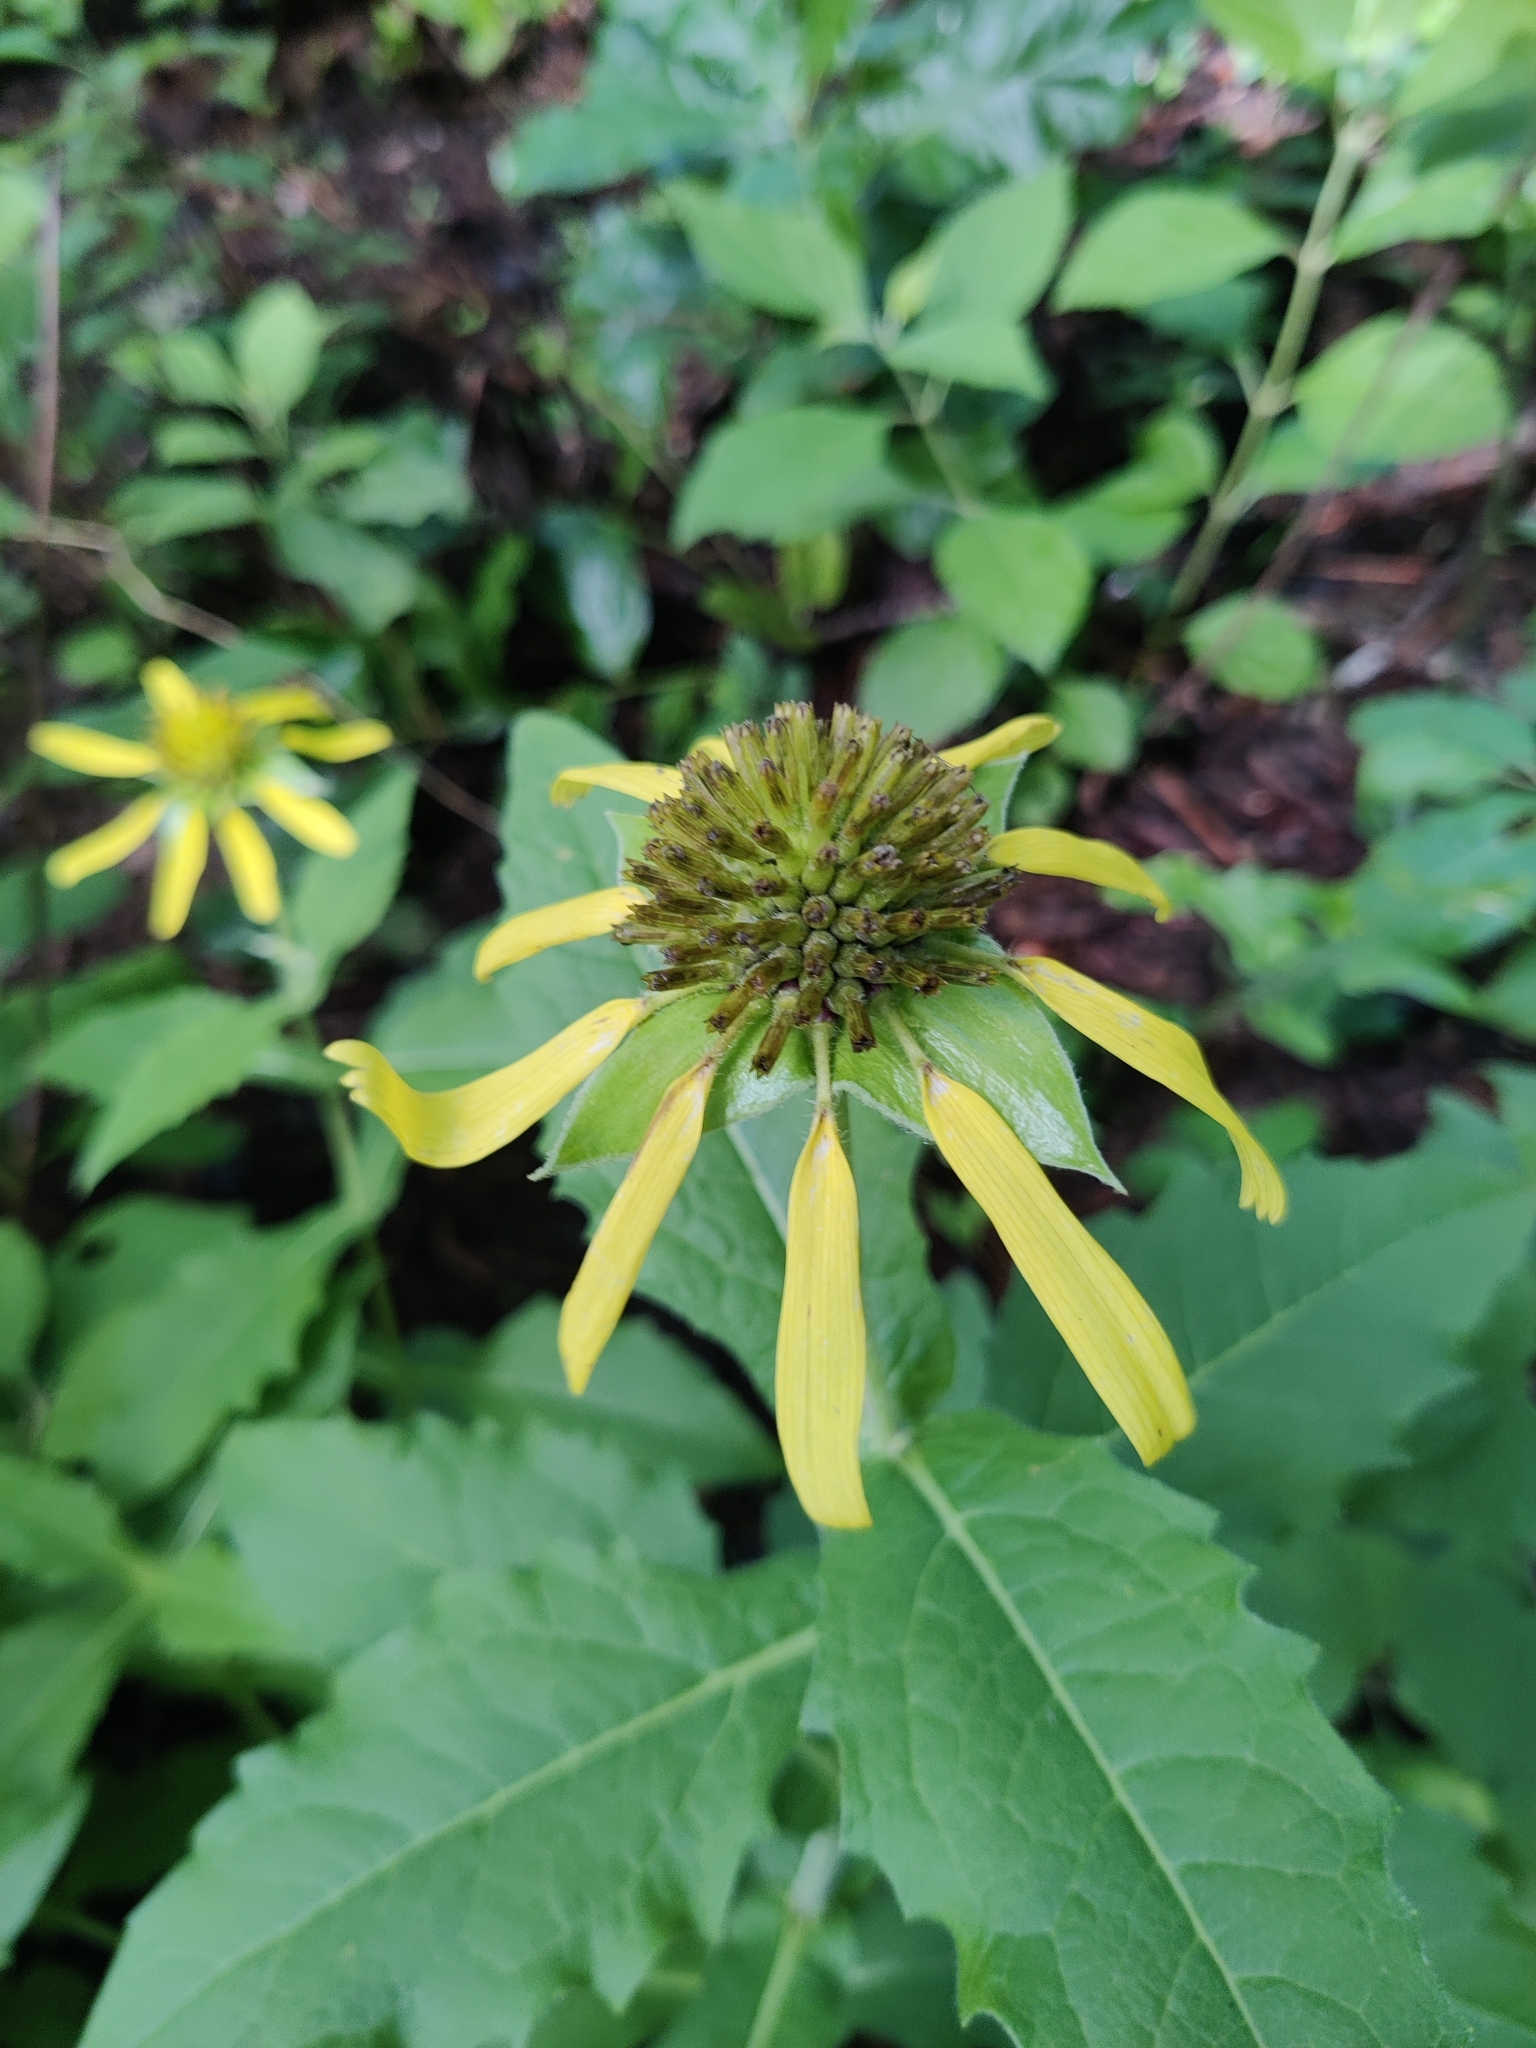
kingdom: Plantae
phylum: Tracheophyta
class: Magnoliopsida
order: Asterales
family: Asteraceae
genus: Tetragonotheca
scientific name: Tetragonotheca helianthoides
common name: Pineland-ginseng
